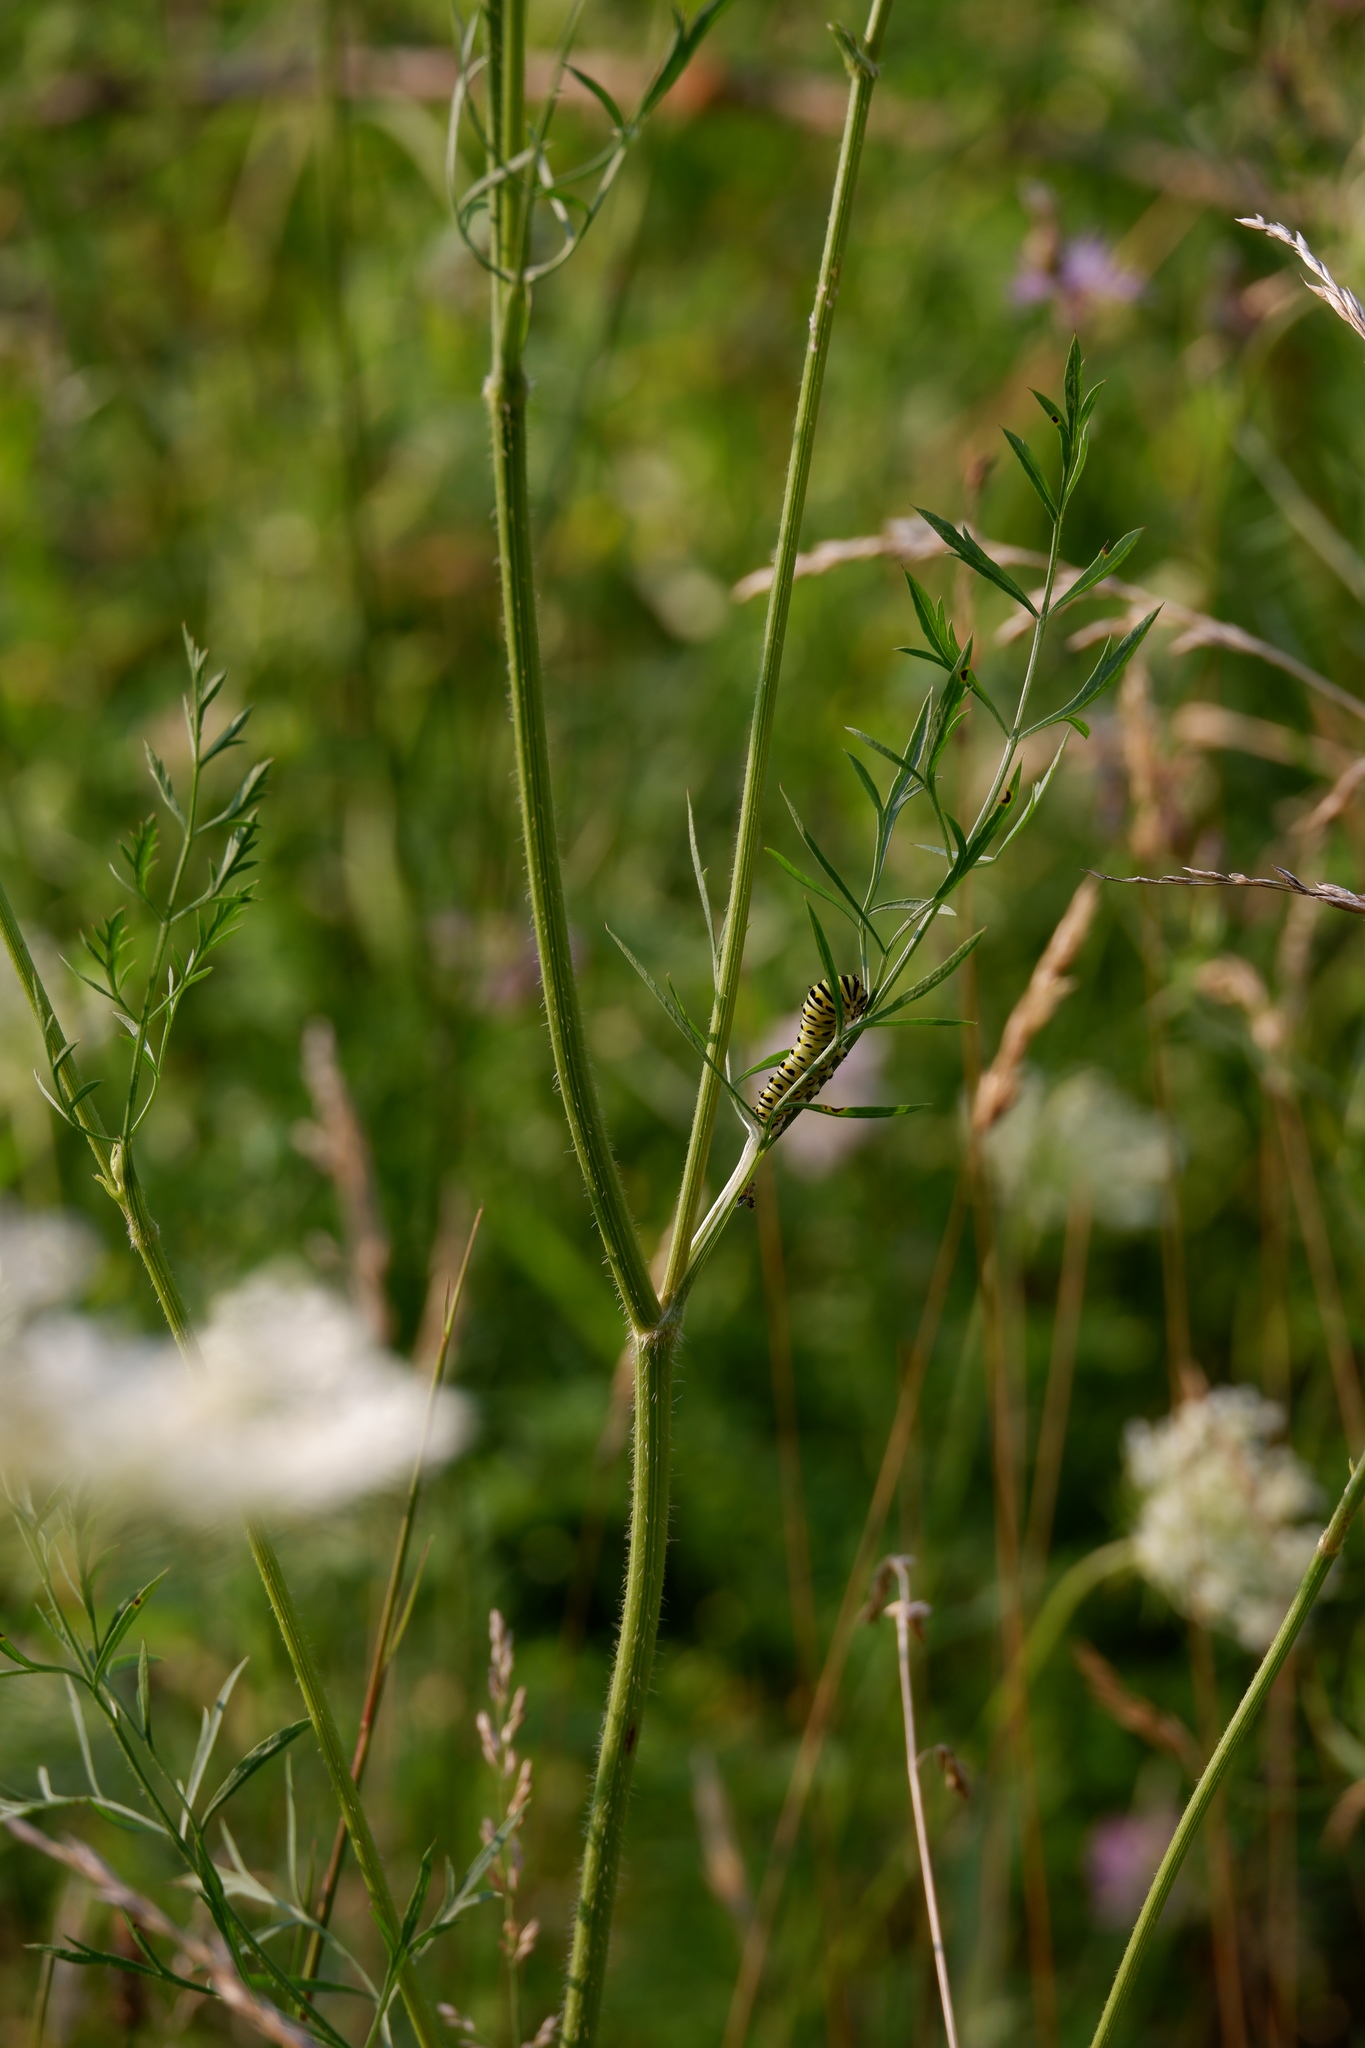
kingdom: Animalia
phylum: Arthropoda
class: Insecta
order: Lepidoptera
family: Papilionidae
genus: Papilio
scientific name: Papilio polyxenes
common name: Black swallowtail
